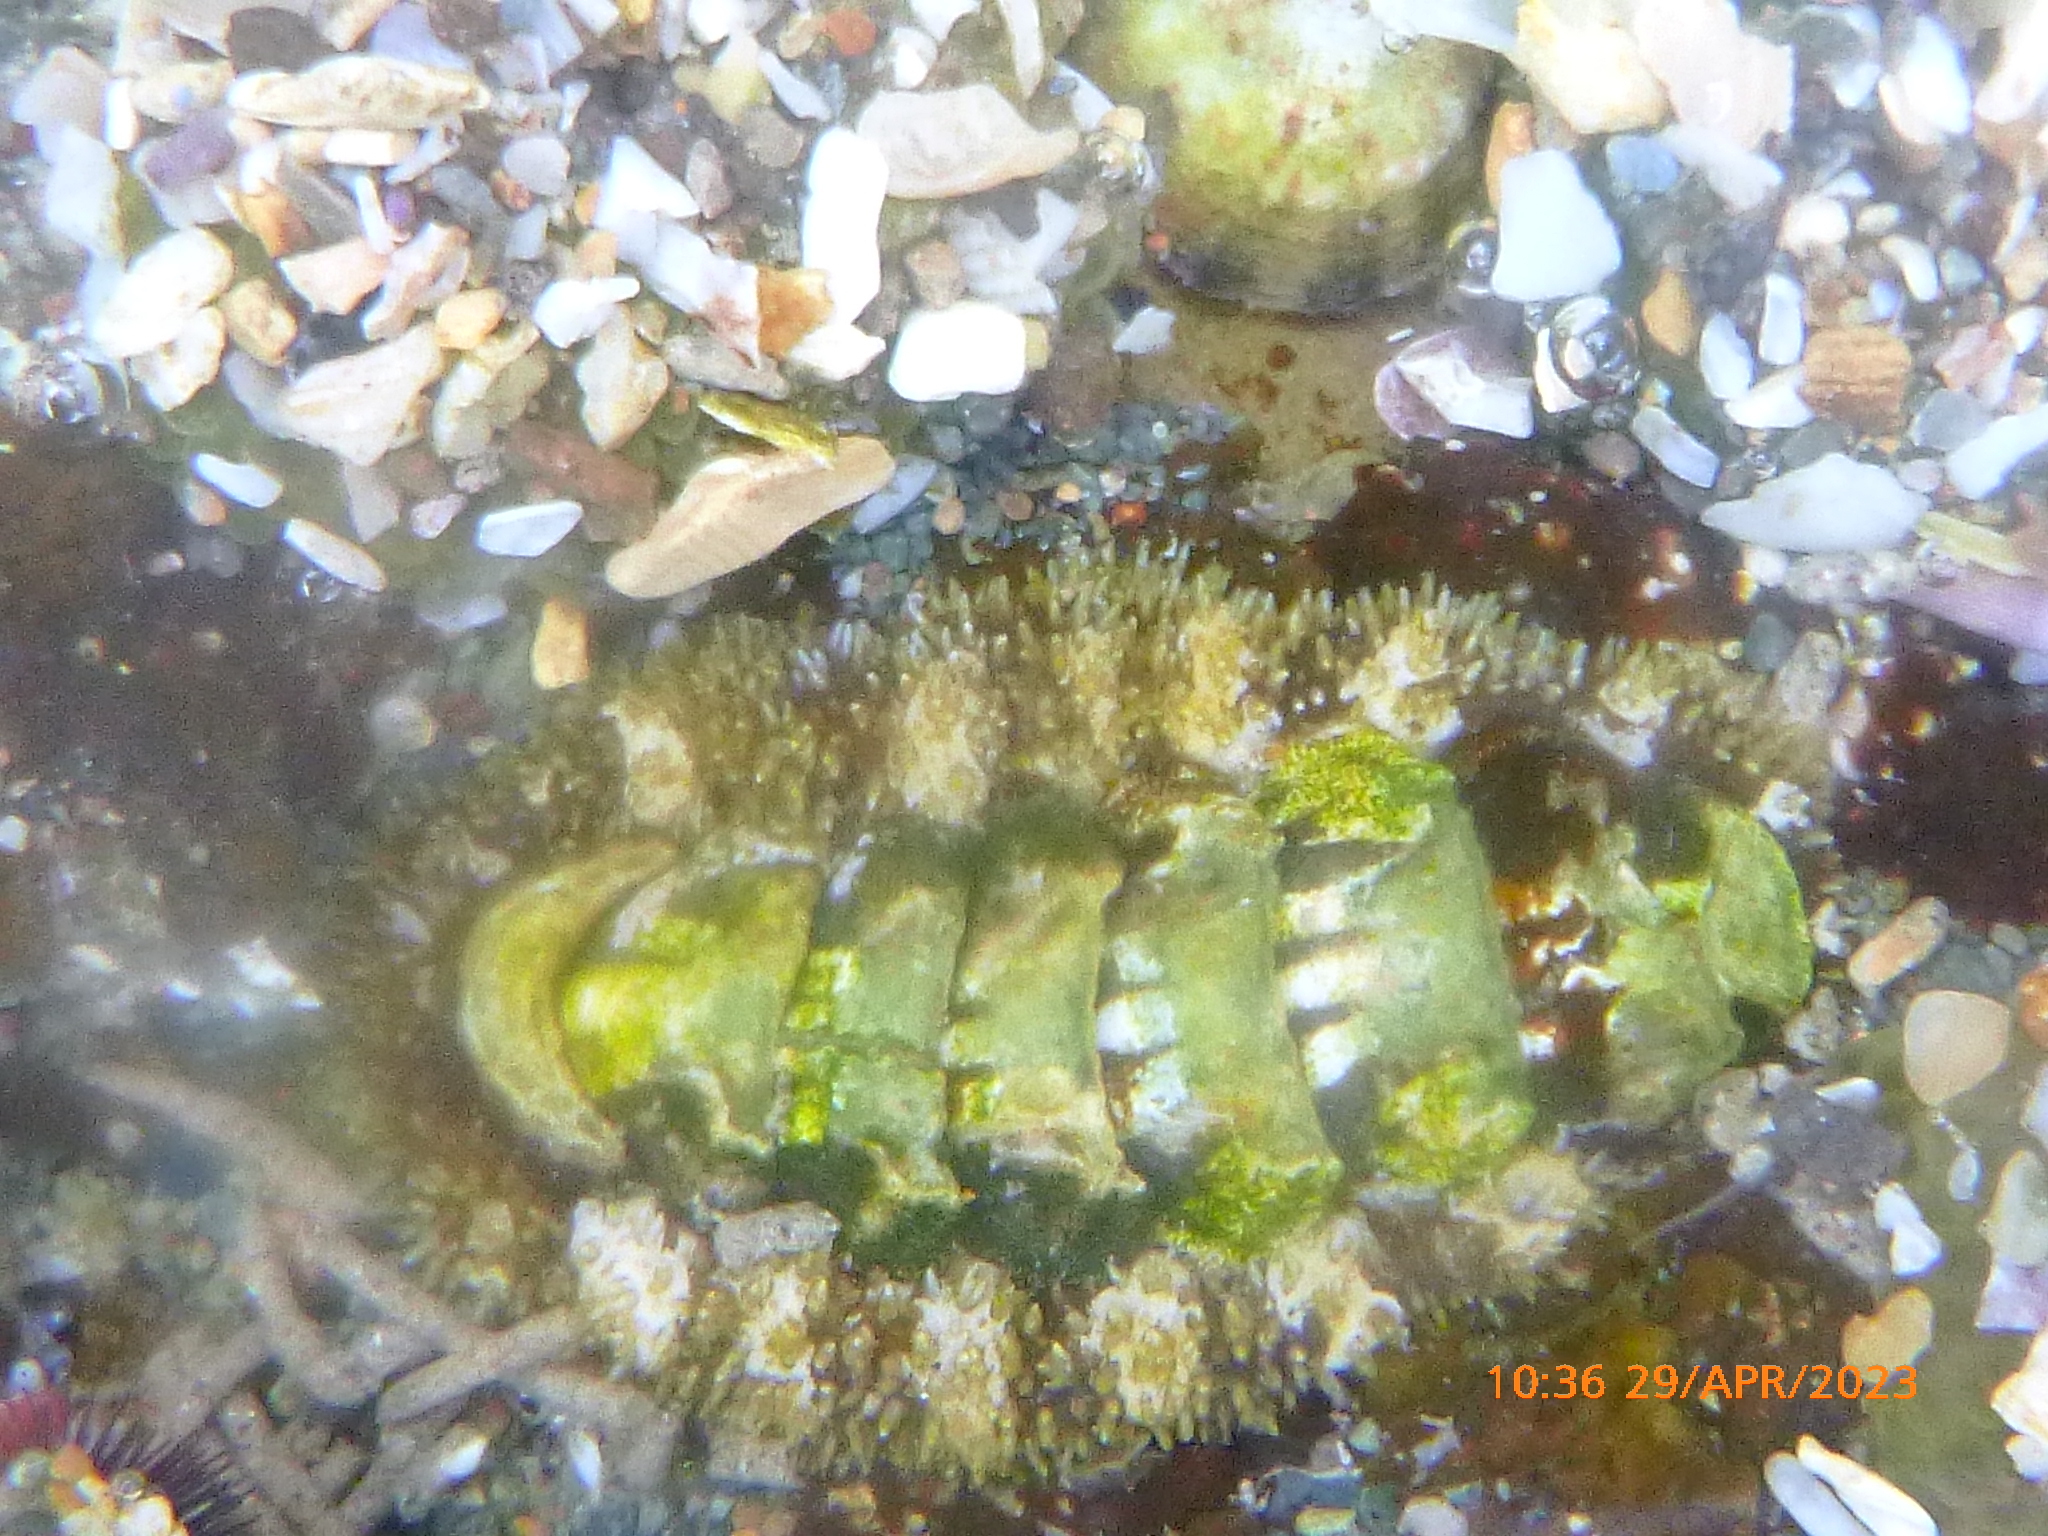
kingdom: Animalia
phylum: Mollusca
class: Polyplacophora
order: Chitonida
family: Tonicellidae
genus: Nuttallina
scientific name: Nuttallina californica
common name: California nuttall chiton
